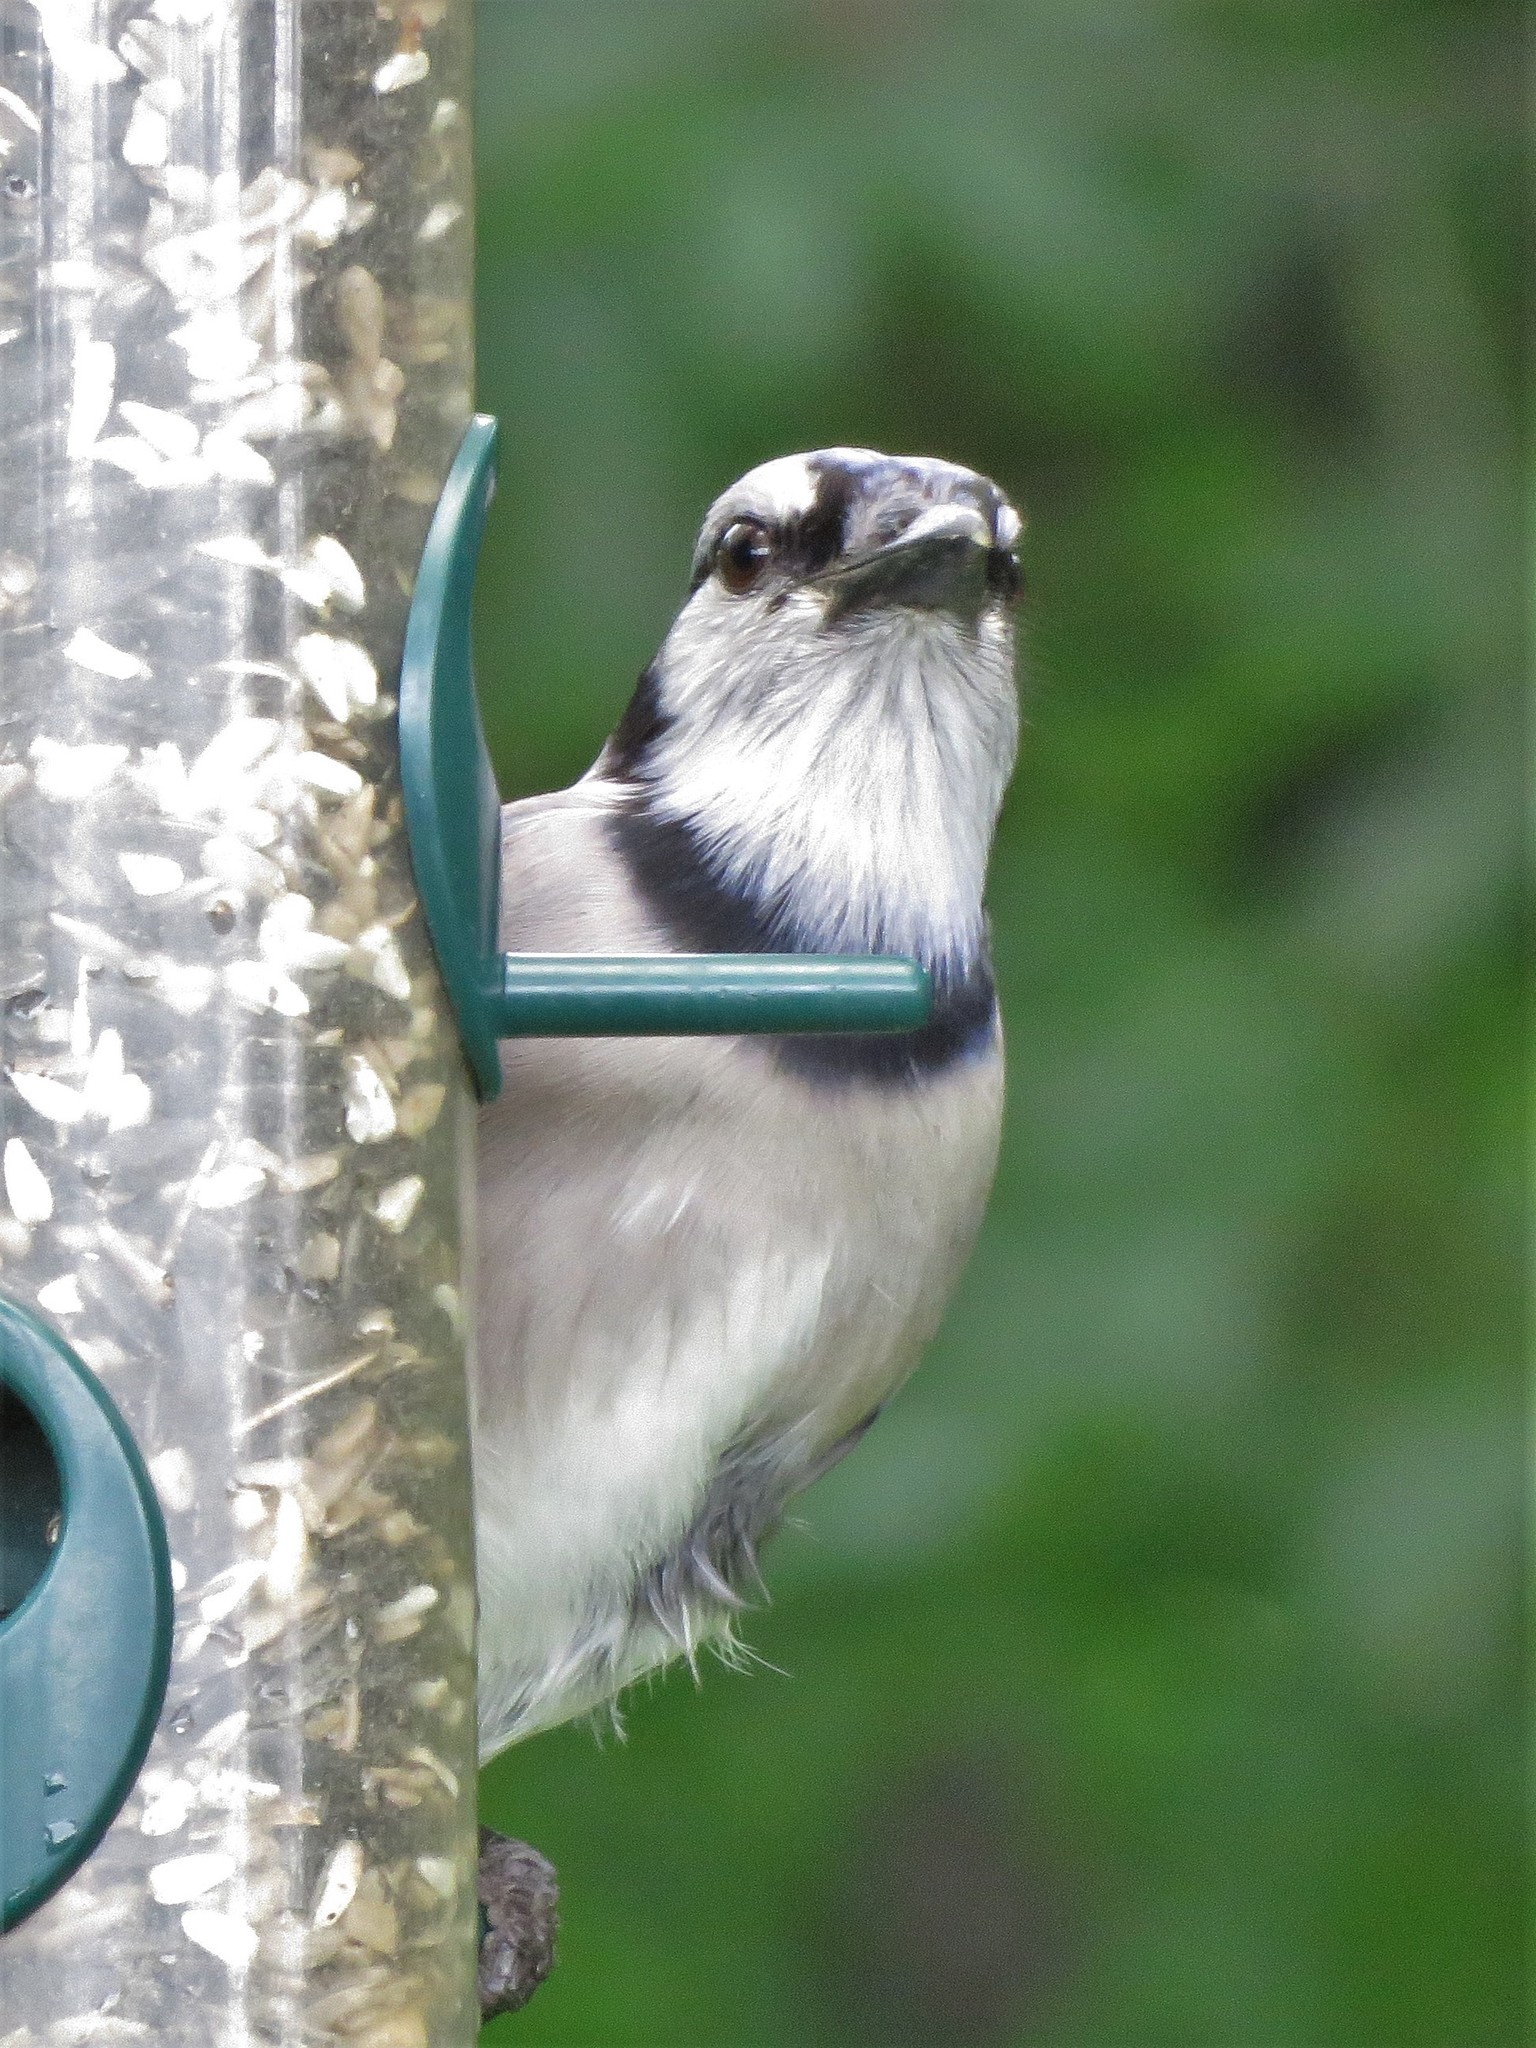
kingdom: Animalia
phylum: Chordata
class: Aves
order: Passeriformes
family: Corvidae
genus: Cyanocitta
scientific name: Cyanocitta cristata
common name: Blue jay
